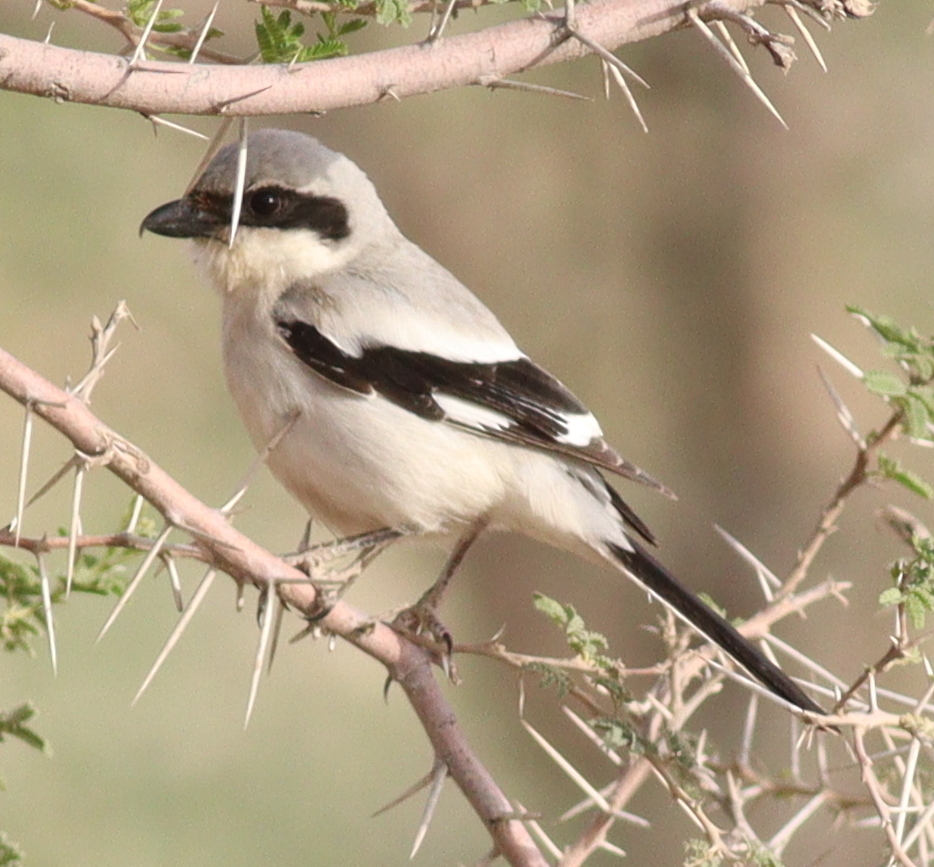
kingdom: Animalia
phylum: Chordata
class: Aves
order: Passeriformes
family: Laniidae
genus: Lanius
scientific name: Lanius excubitor
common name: Great grey shrike
